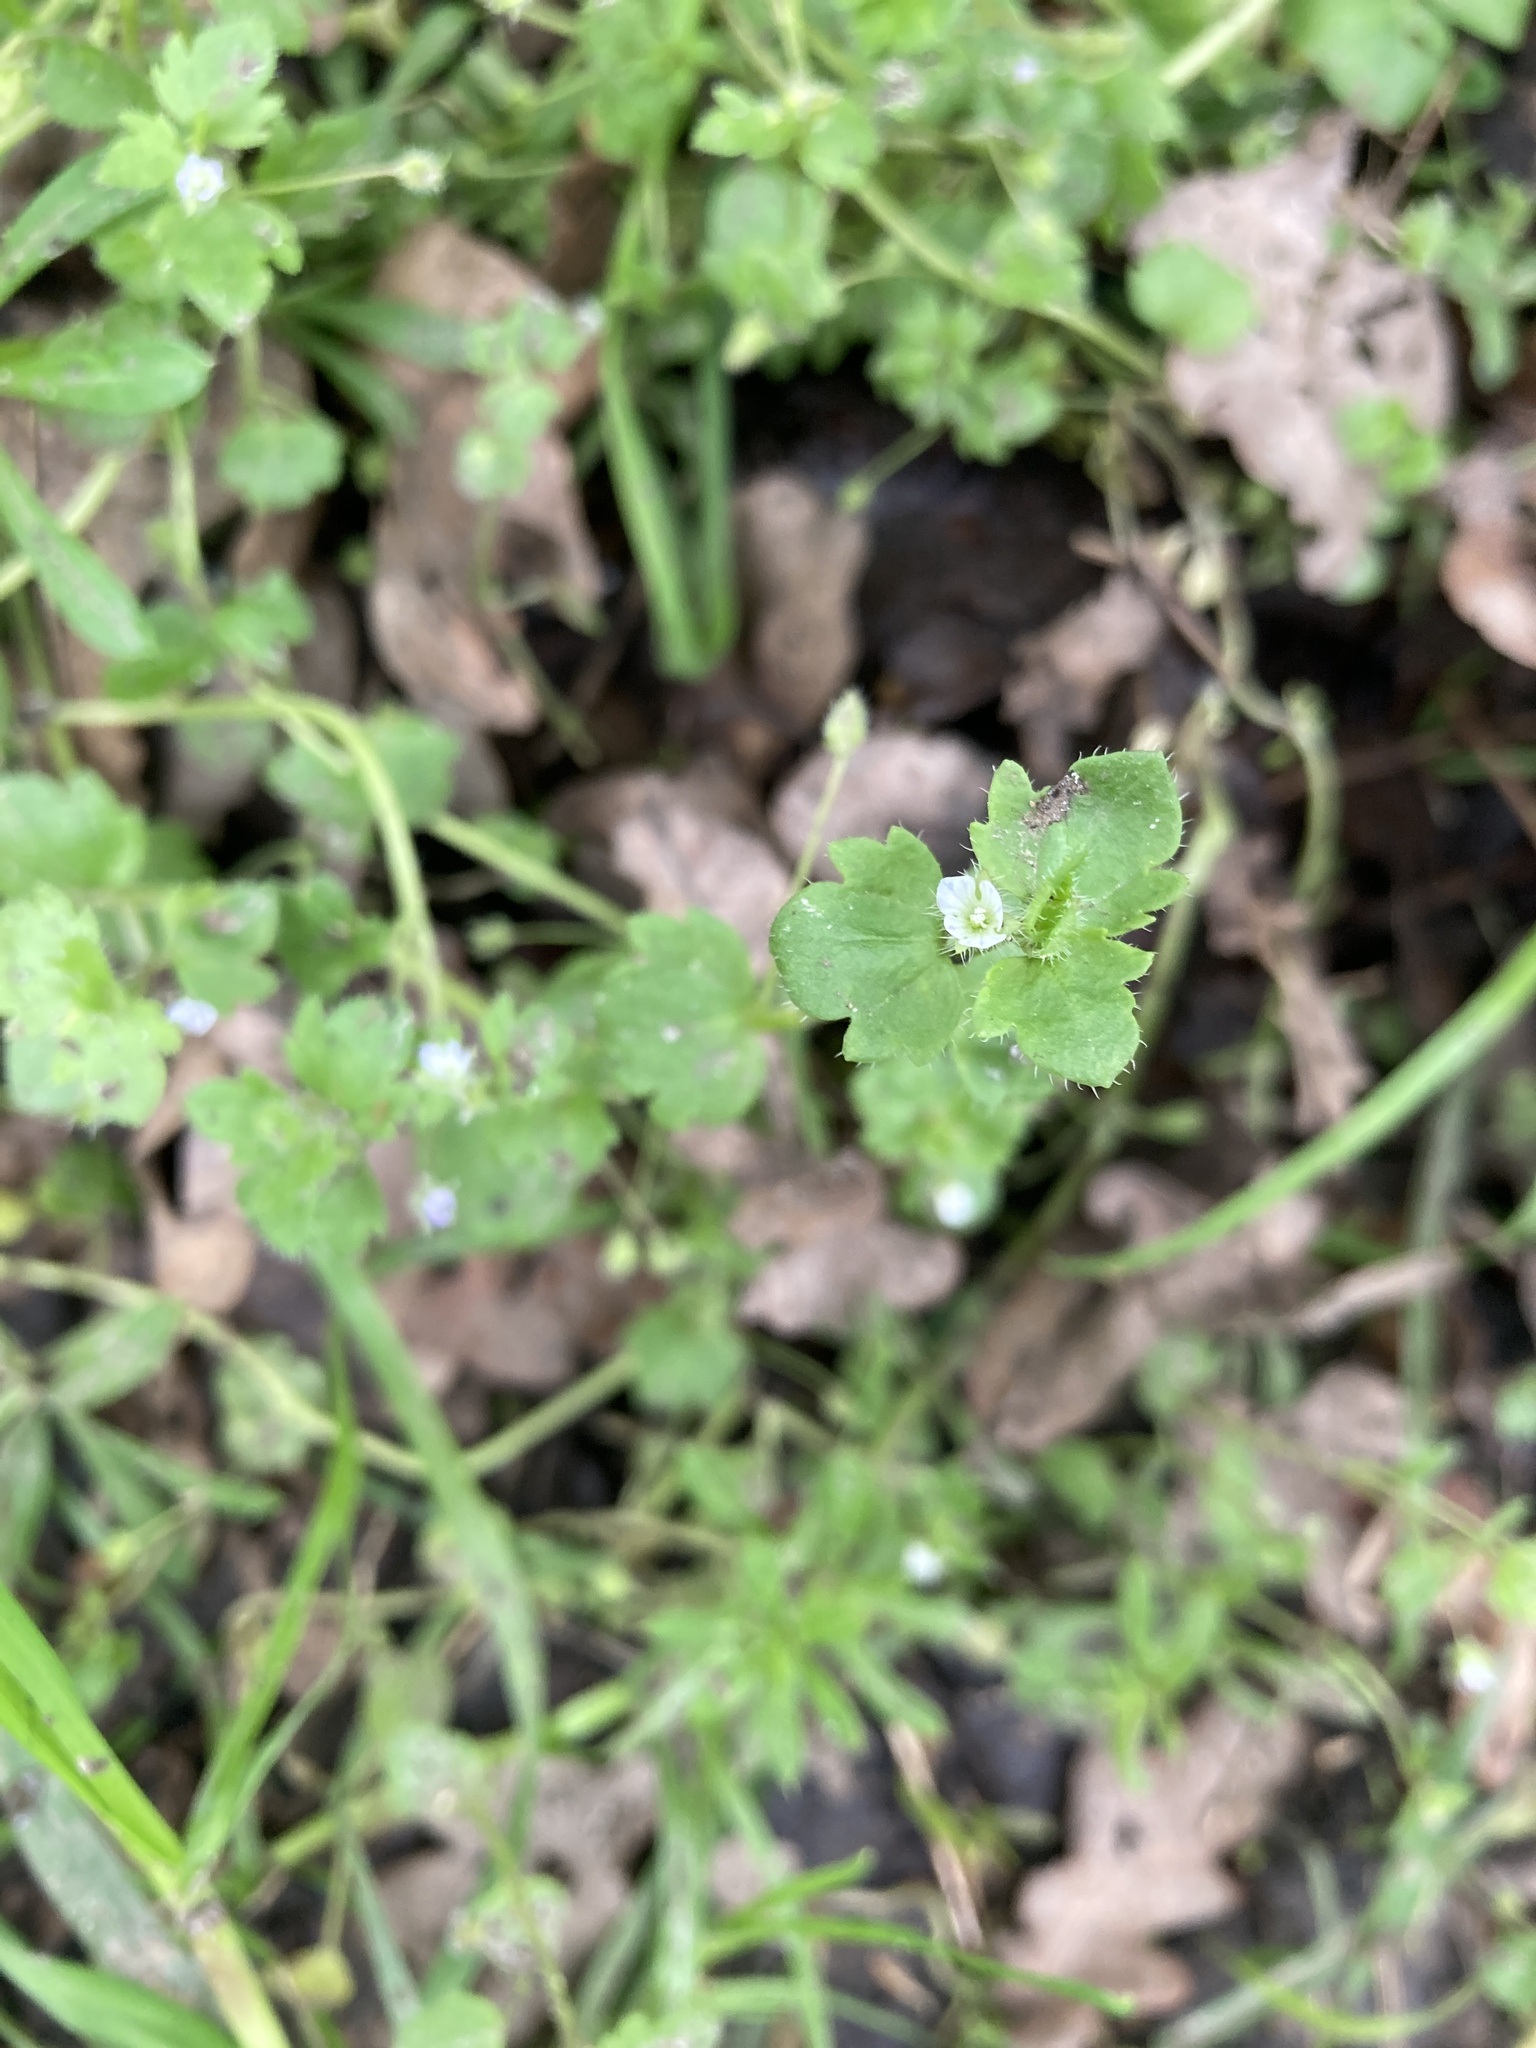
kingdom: Plantae
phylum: Tracheophyta
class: Magnoliopsida
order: Lamiales
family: Plantaginaceae
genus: Veronica
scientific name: Veronica hederifolia
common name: Ivy-leaved speedwell
